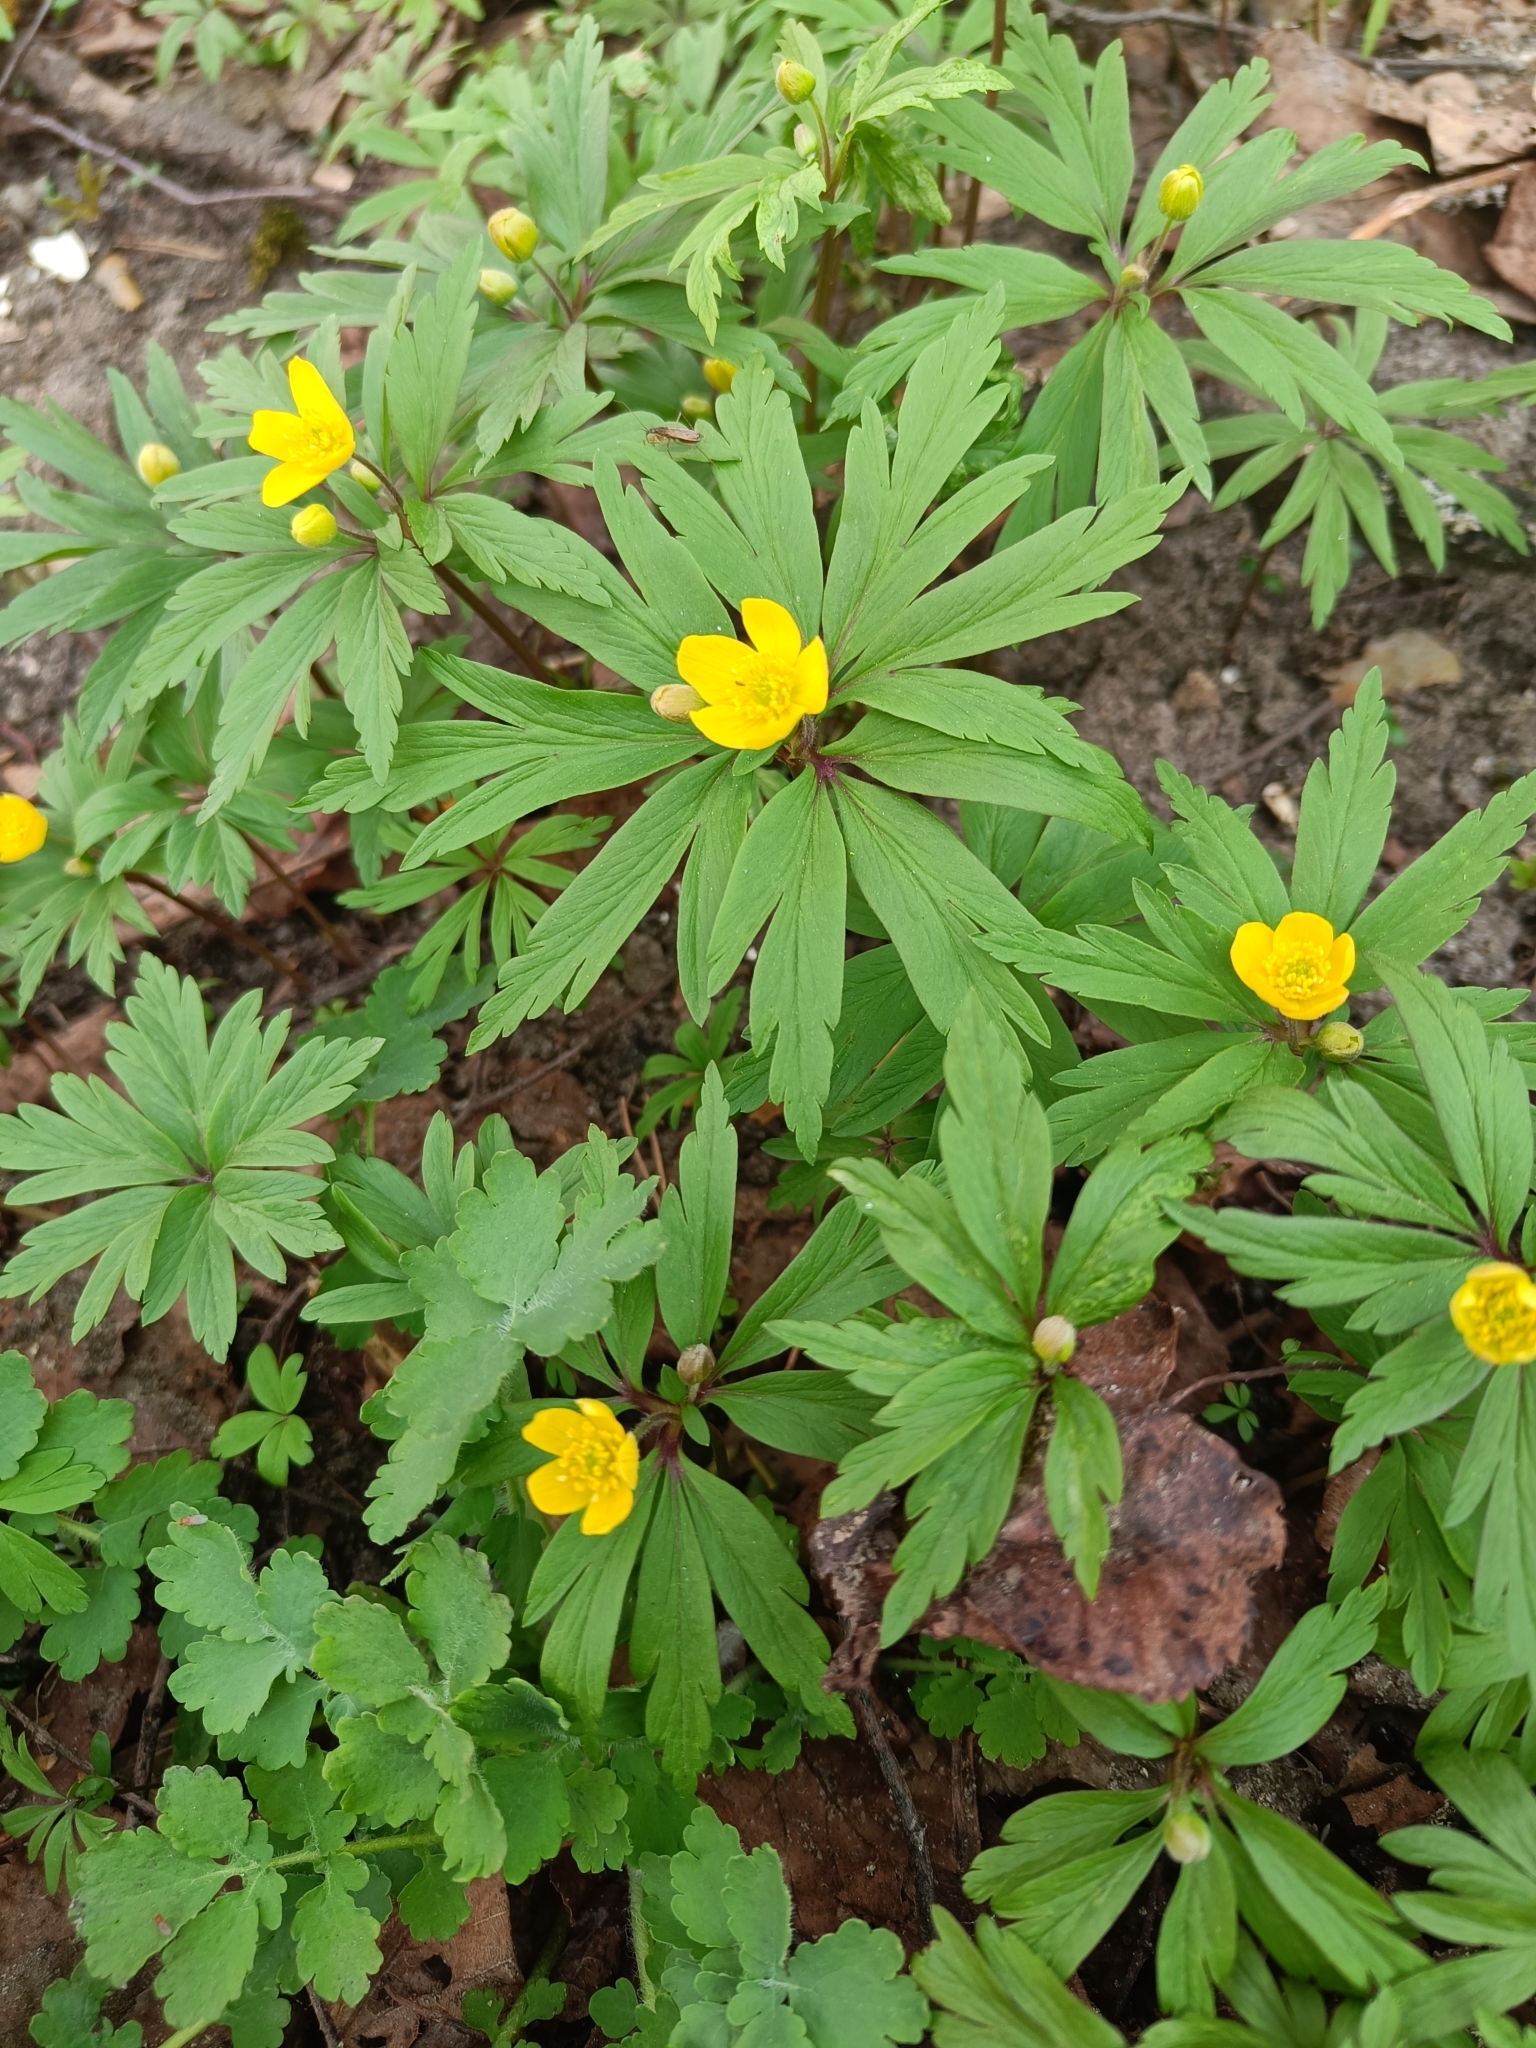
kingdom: Plantae
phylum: Tracheophyta
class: Magnoliopsida
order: Ranunculales
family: Ranunculaceae
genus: Anemone
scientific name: Anemone ranunculoides
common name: Yellow anemone
